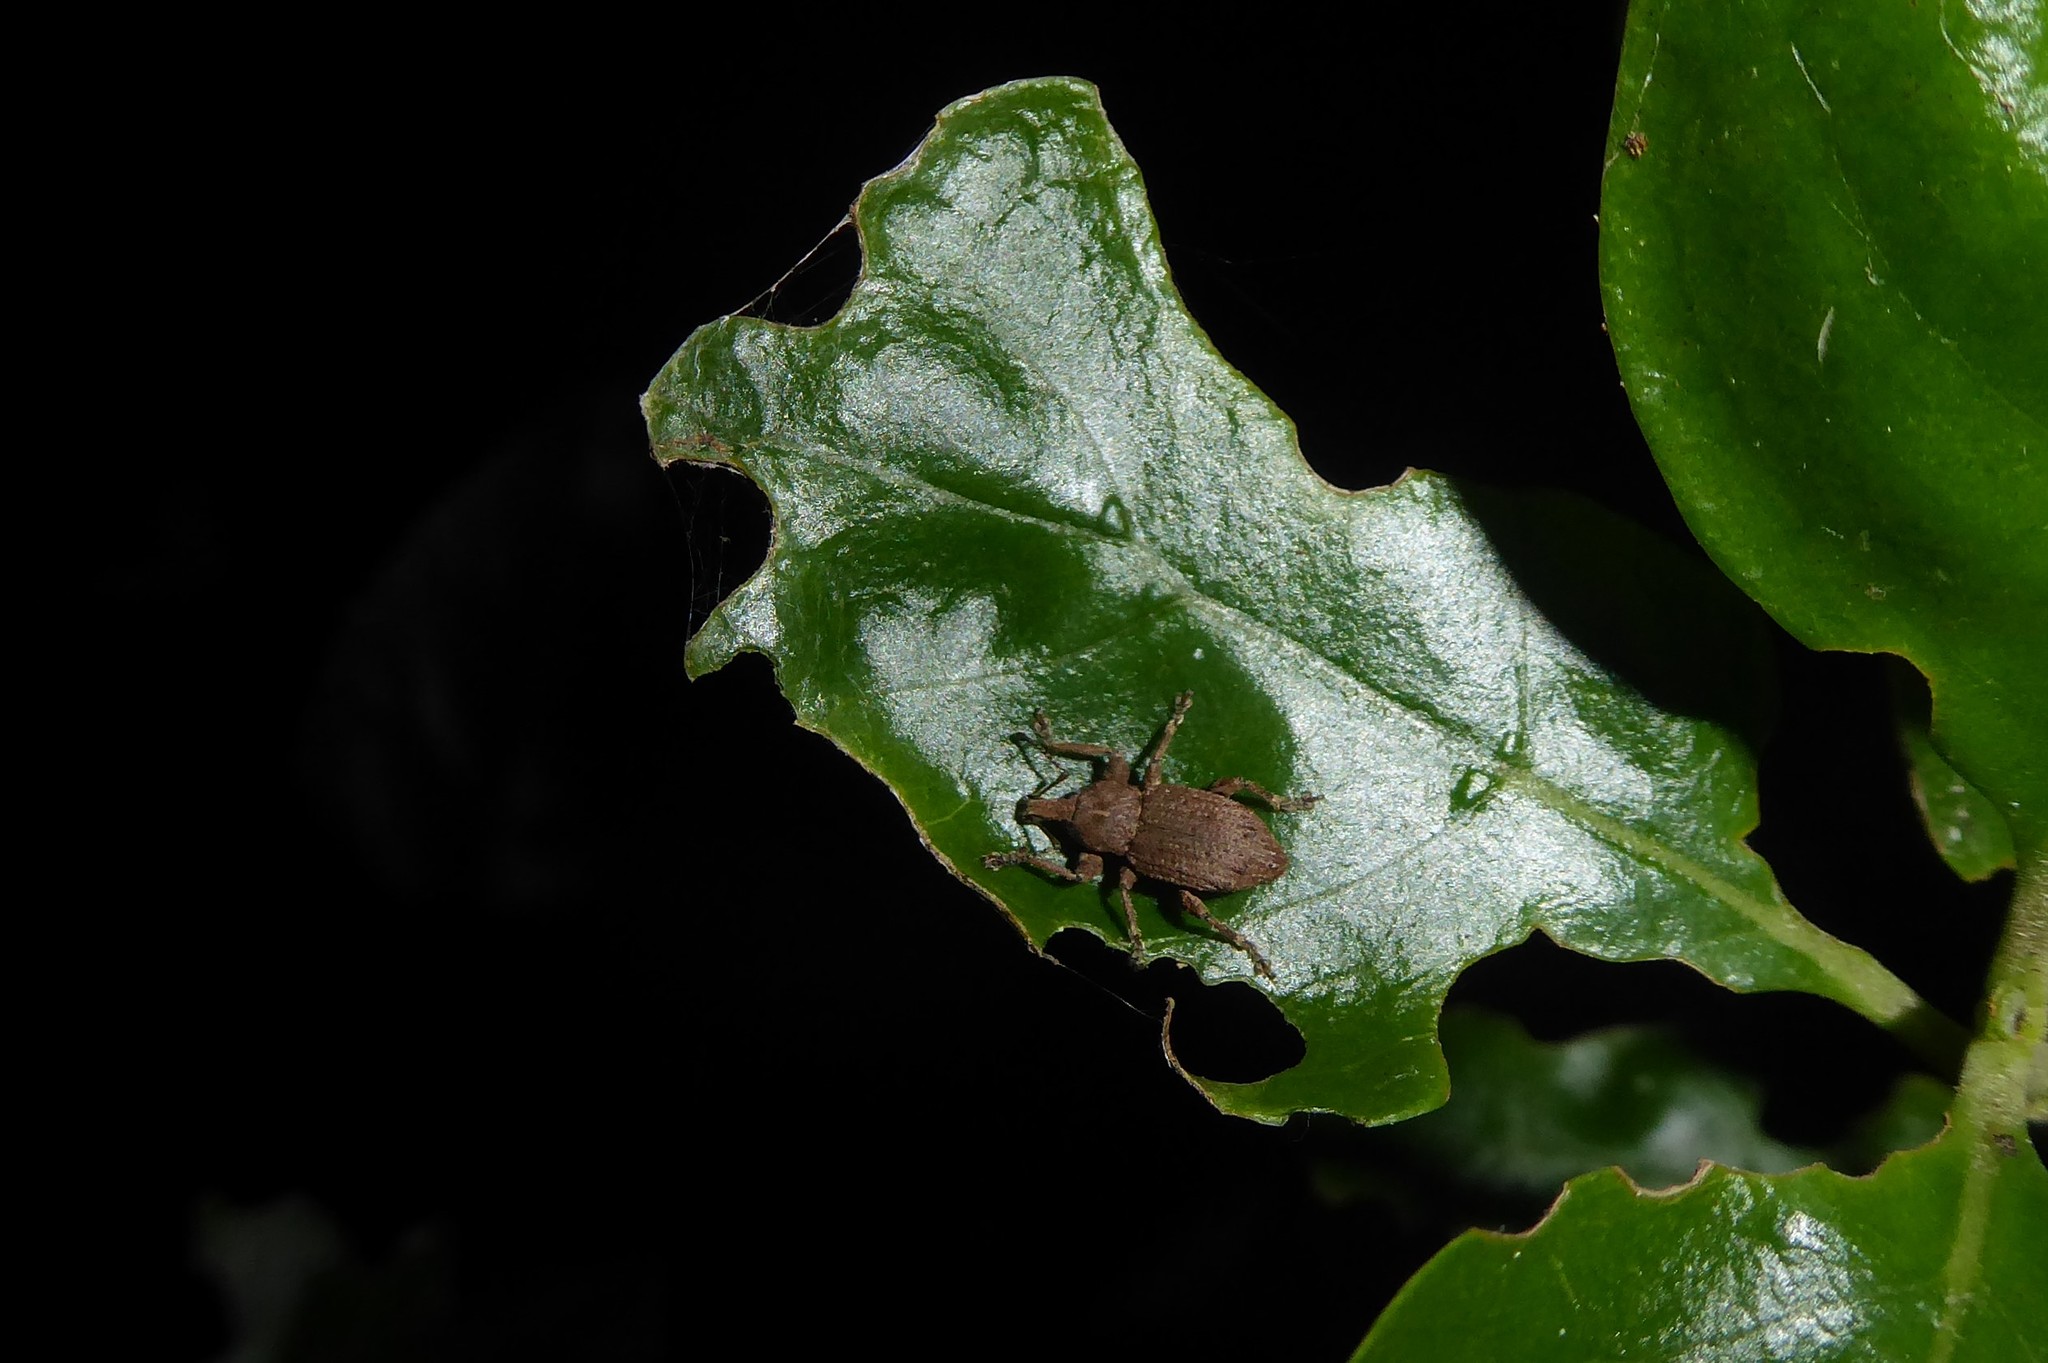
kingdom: Animalia
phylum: Arthropoda
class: Insecta
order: Coleoptera
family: Curculionidae
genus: Chalepistes
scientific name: Chalepistes rubidus
